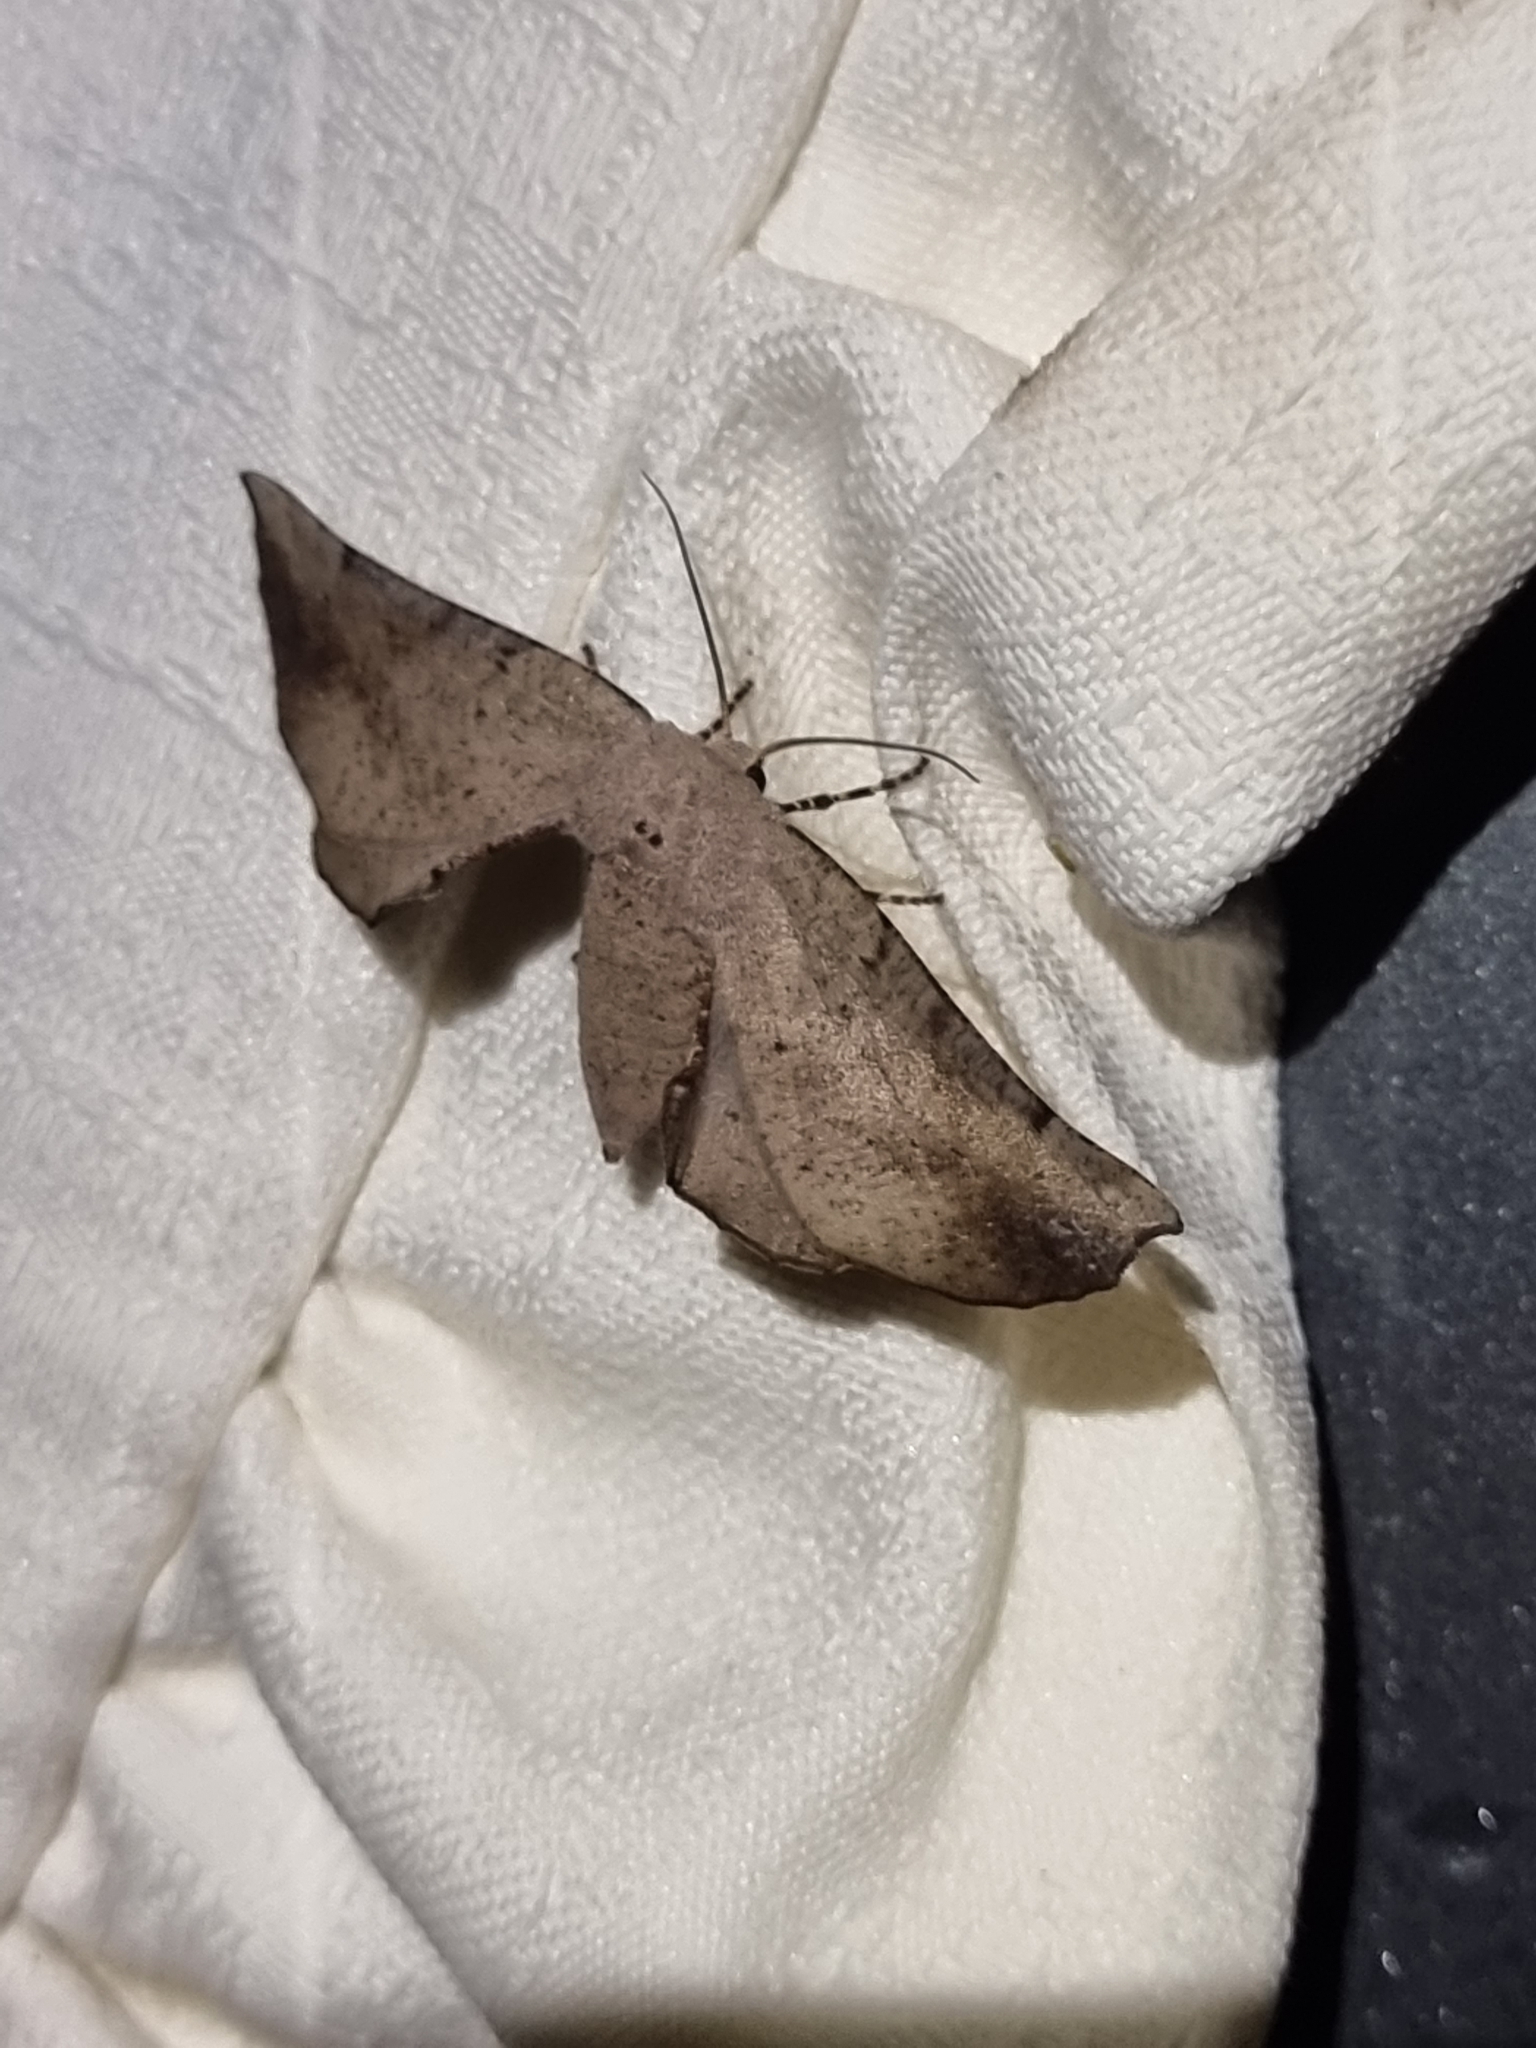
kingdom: Animalia
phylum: Arthropoda
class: Insecta
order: Lepidoptera
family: Geometridae
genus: Circopetes
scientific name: Circopetes obtusata
